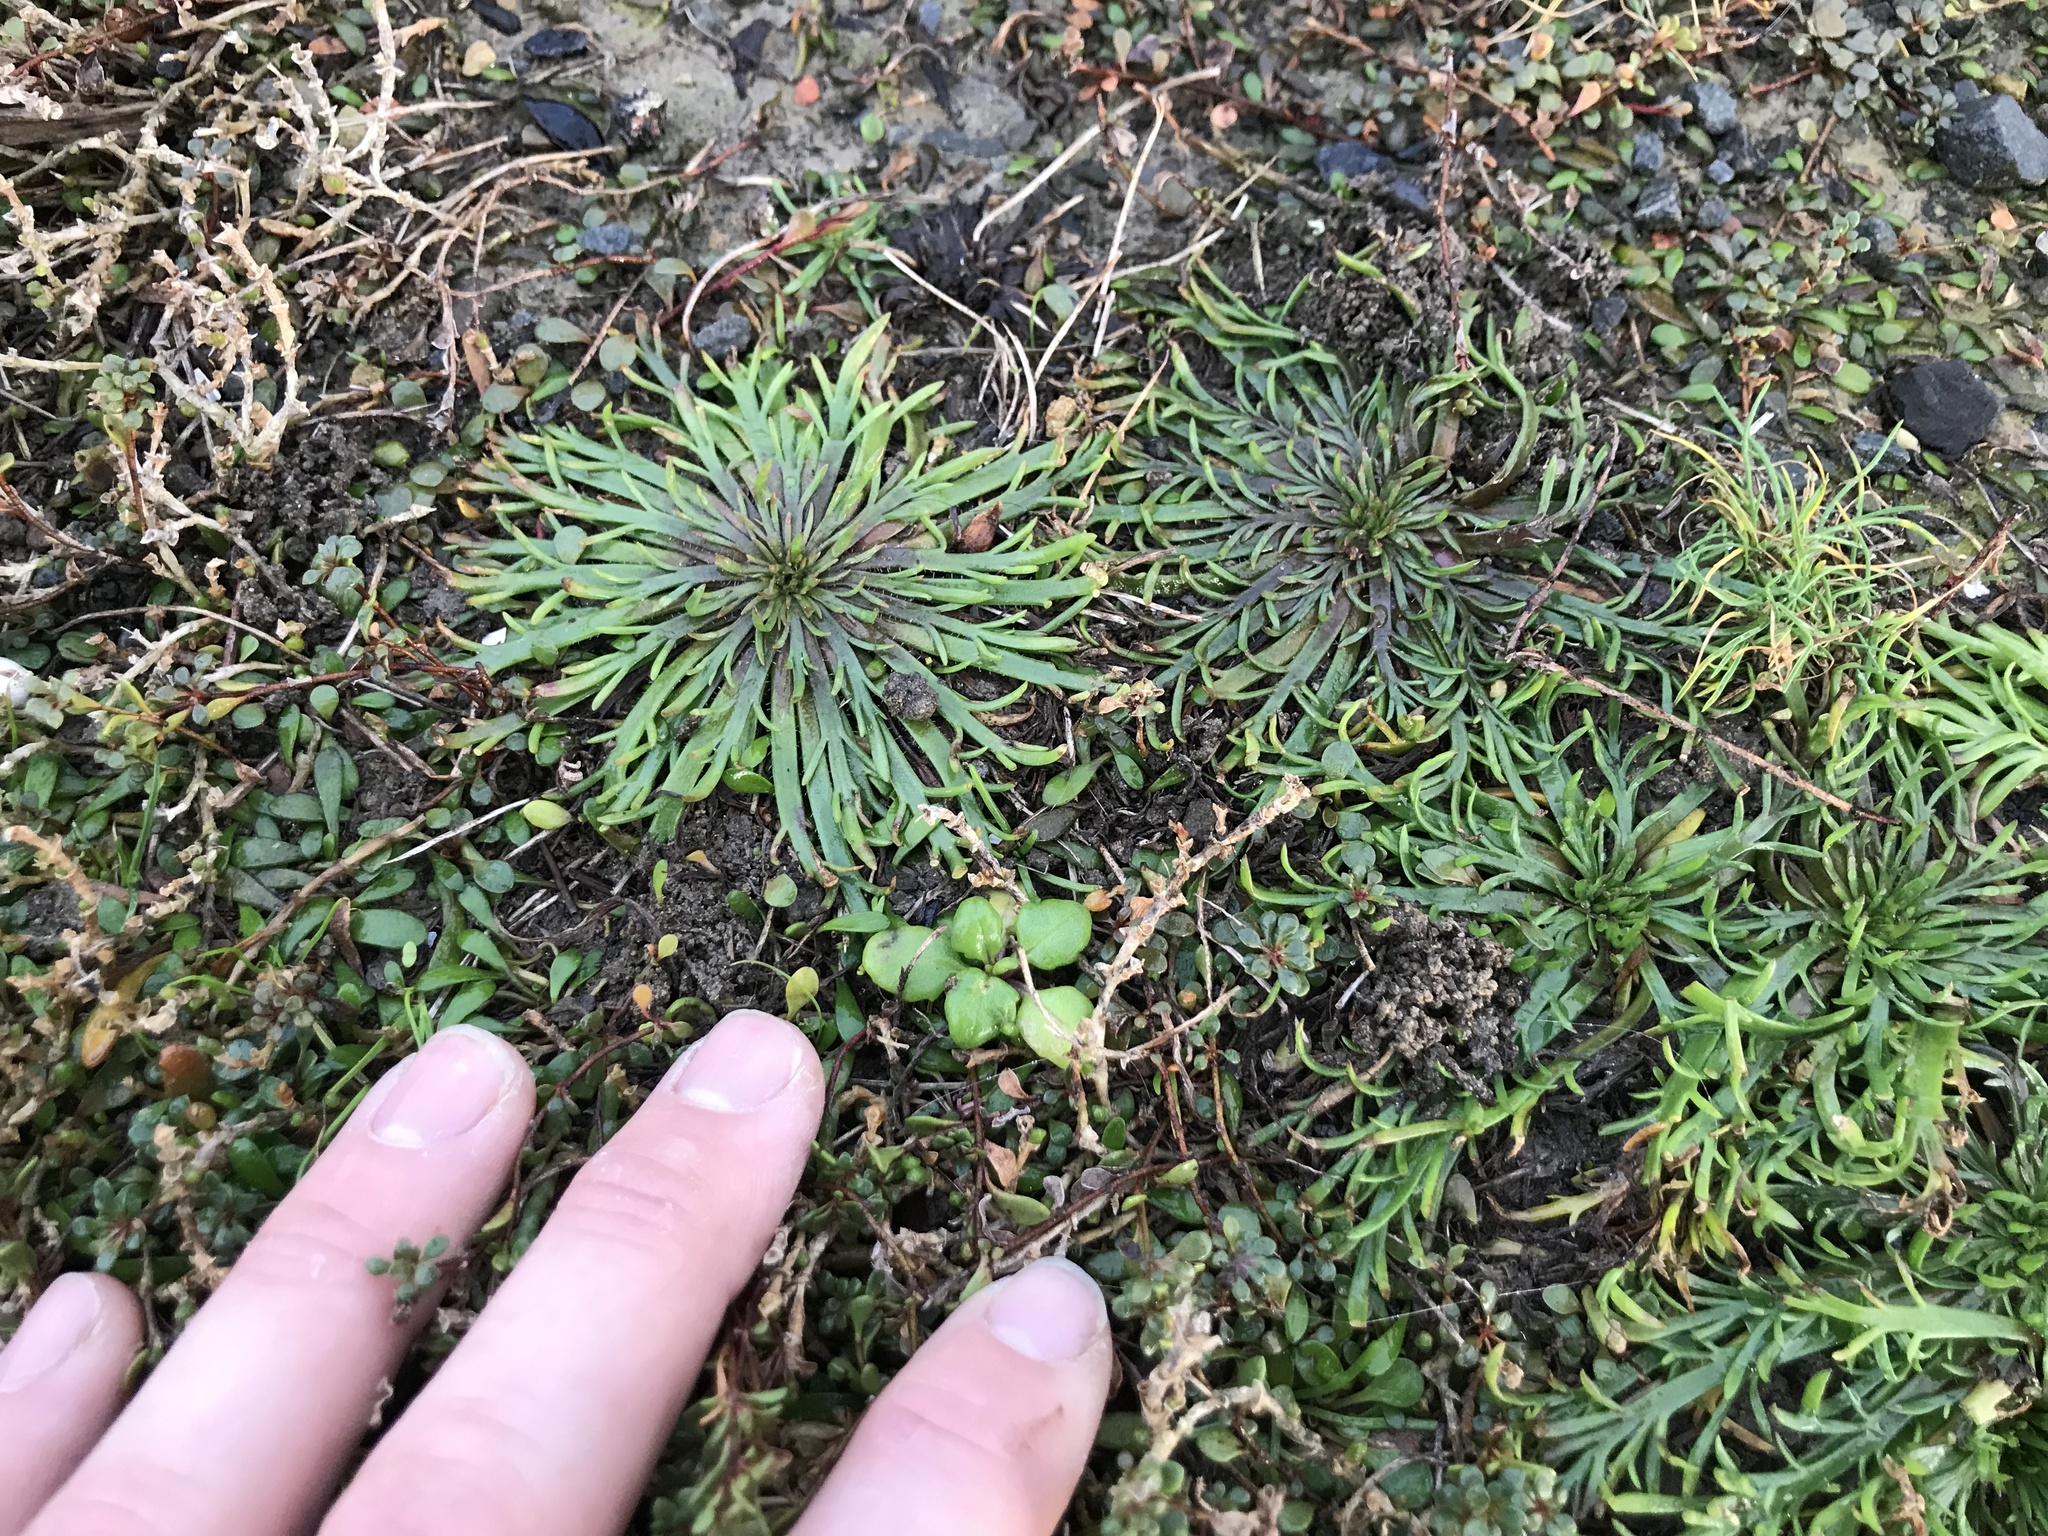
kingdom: Plantae
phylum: Tracheophyta
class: Magnoliopsida
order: Lamiales
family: Plantaginaceae
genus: Plantago
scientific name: Plantago coronopus
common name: Buck's-horn plantain
